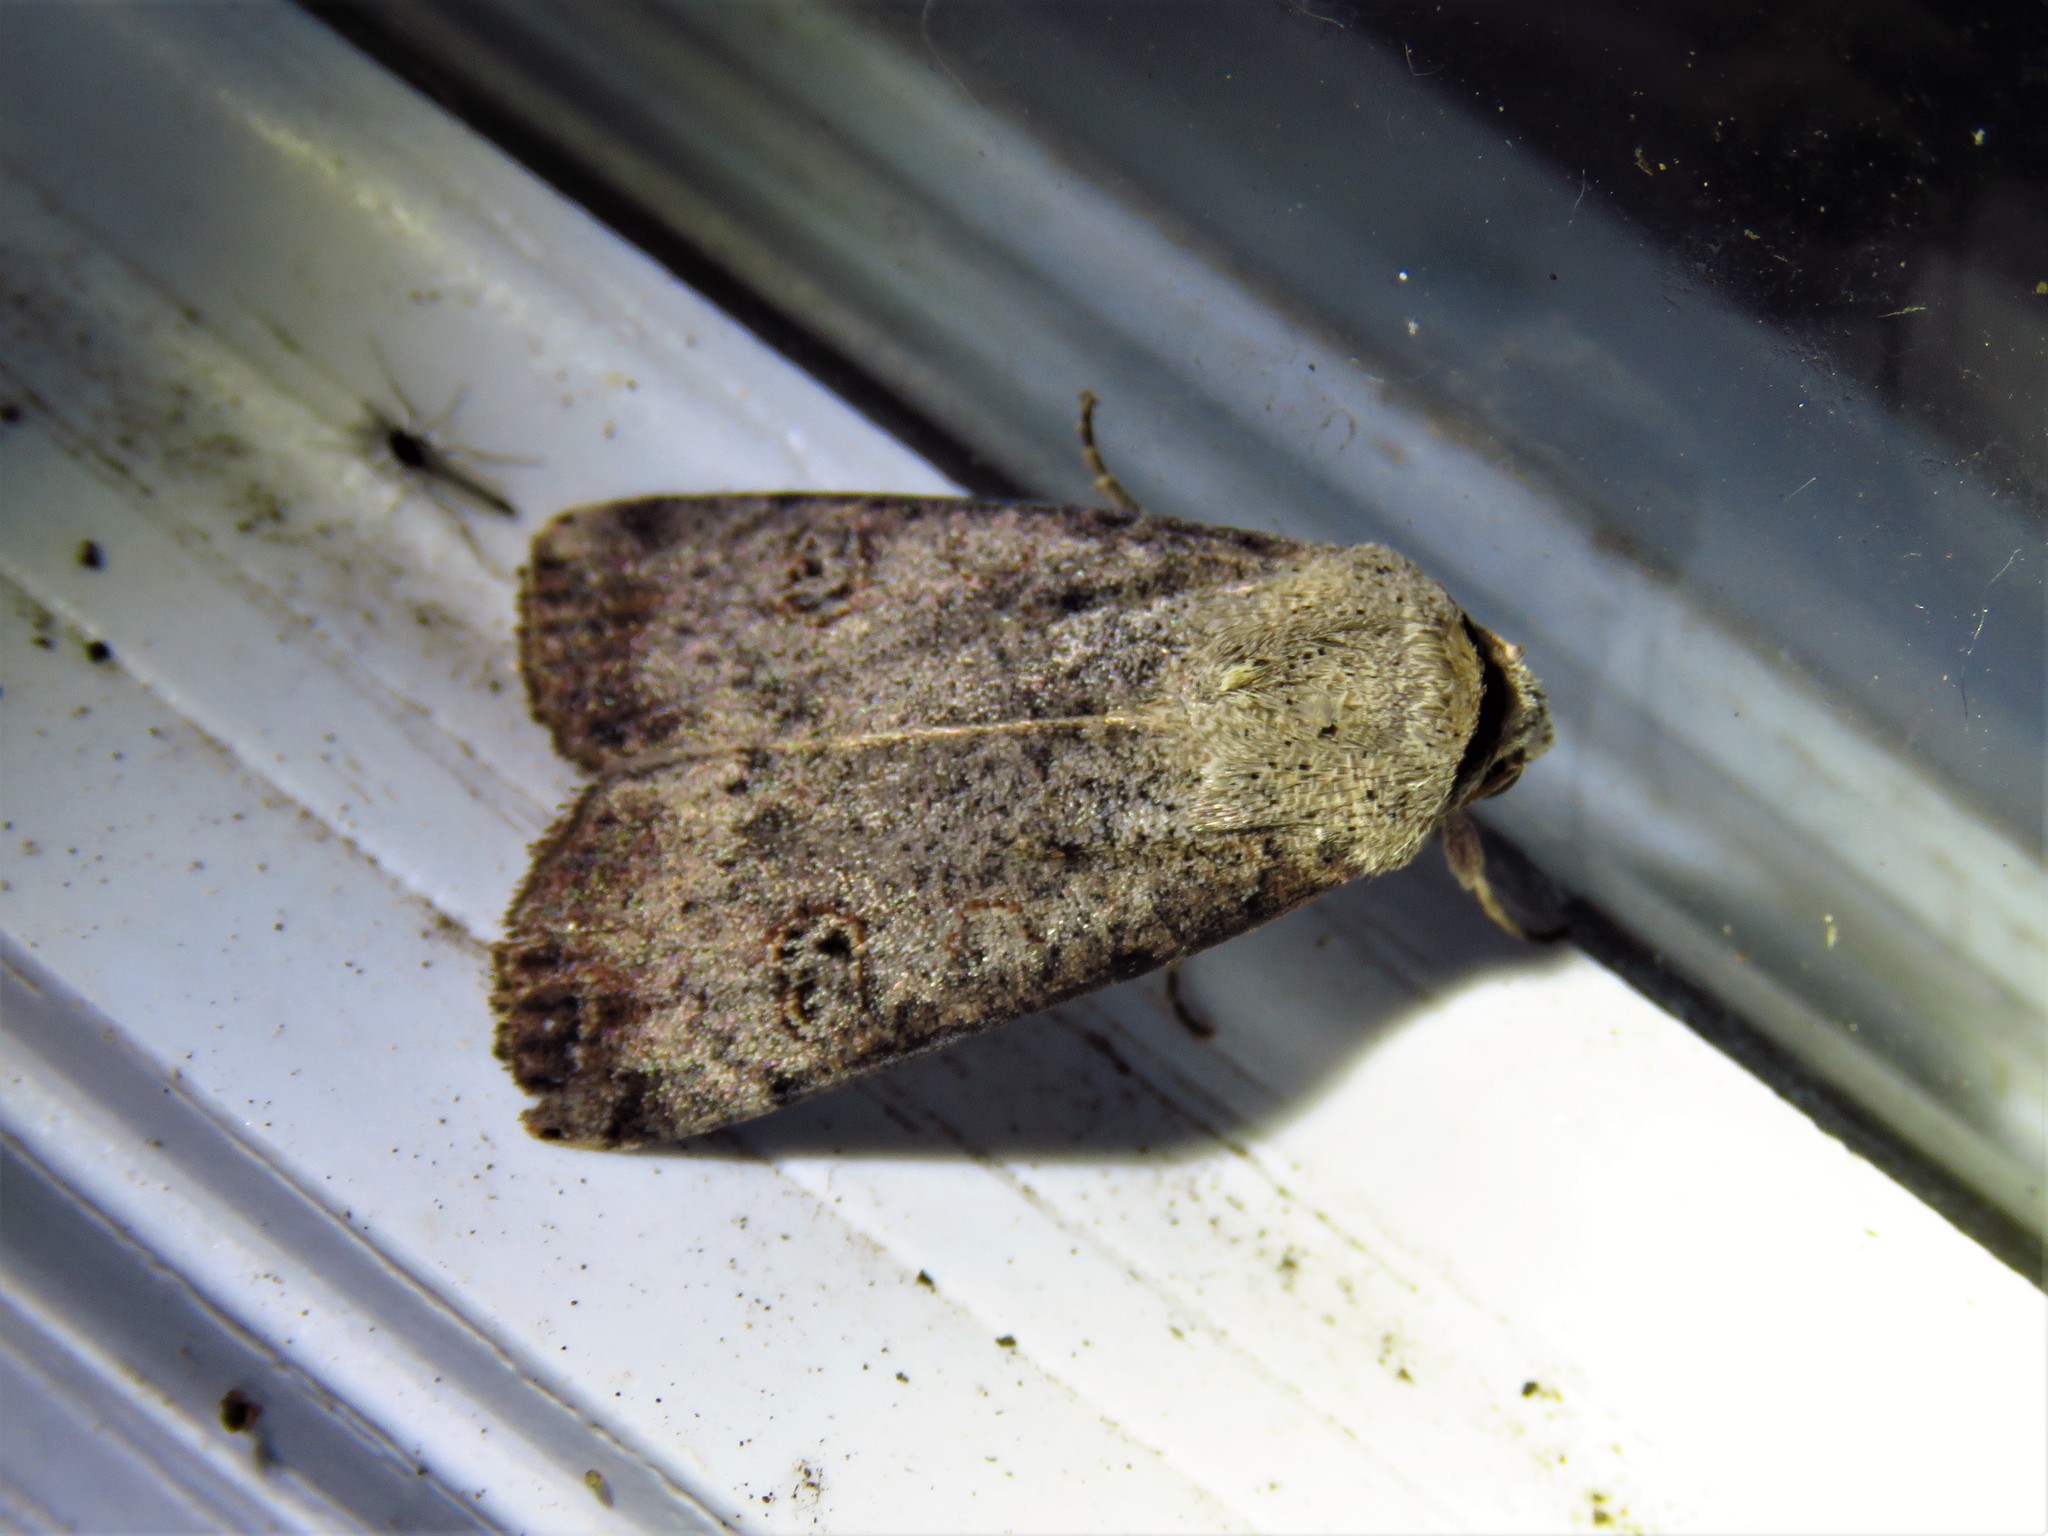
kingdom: Animalia
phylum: Arthropoda
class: Insecta
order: Lepidoptera
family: Noctuidae
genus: Anicla
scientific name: Anicla infecta
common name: Green cutworm
